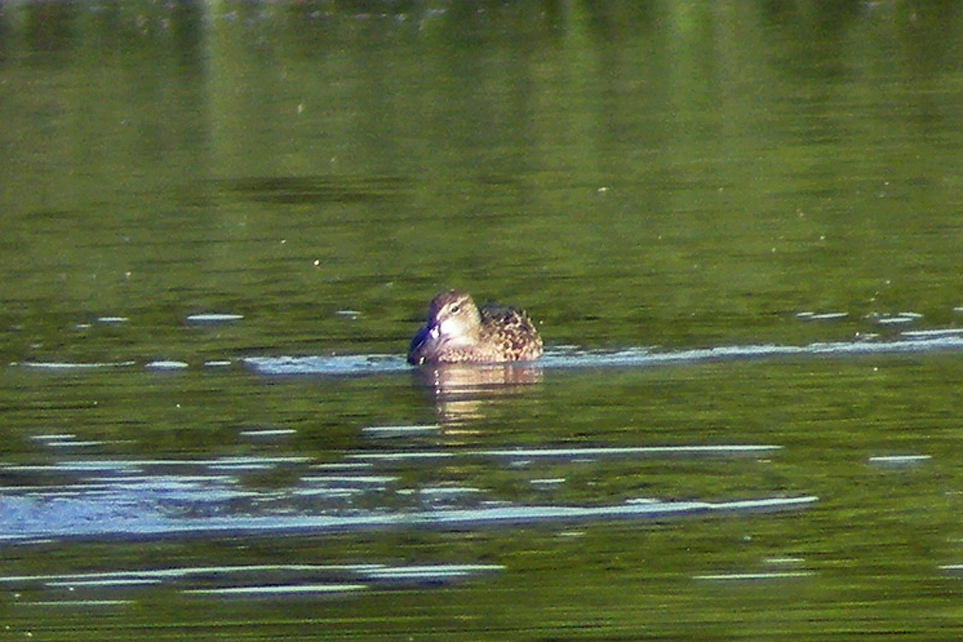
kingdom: Animalia
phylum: Chordata
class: Aves
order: Anseriformes
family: Anatidae
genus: Spatula
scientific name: Spatula discors
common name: Blue-winged teal
